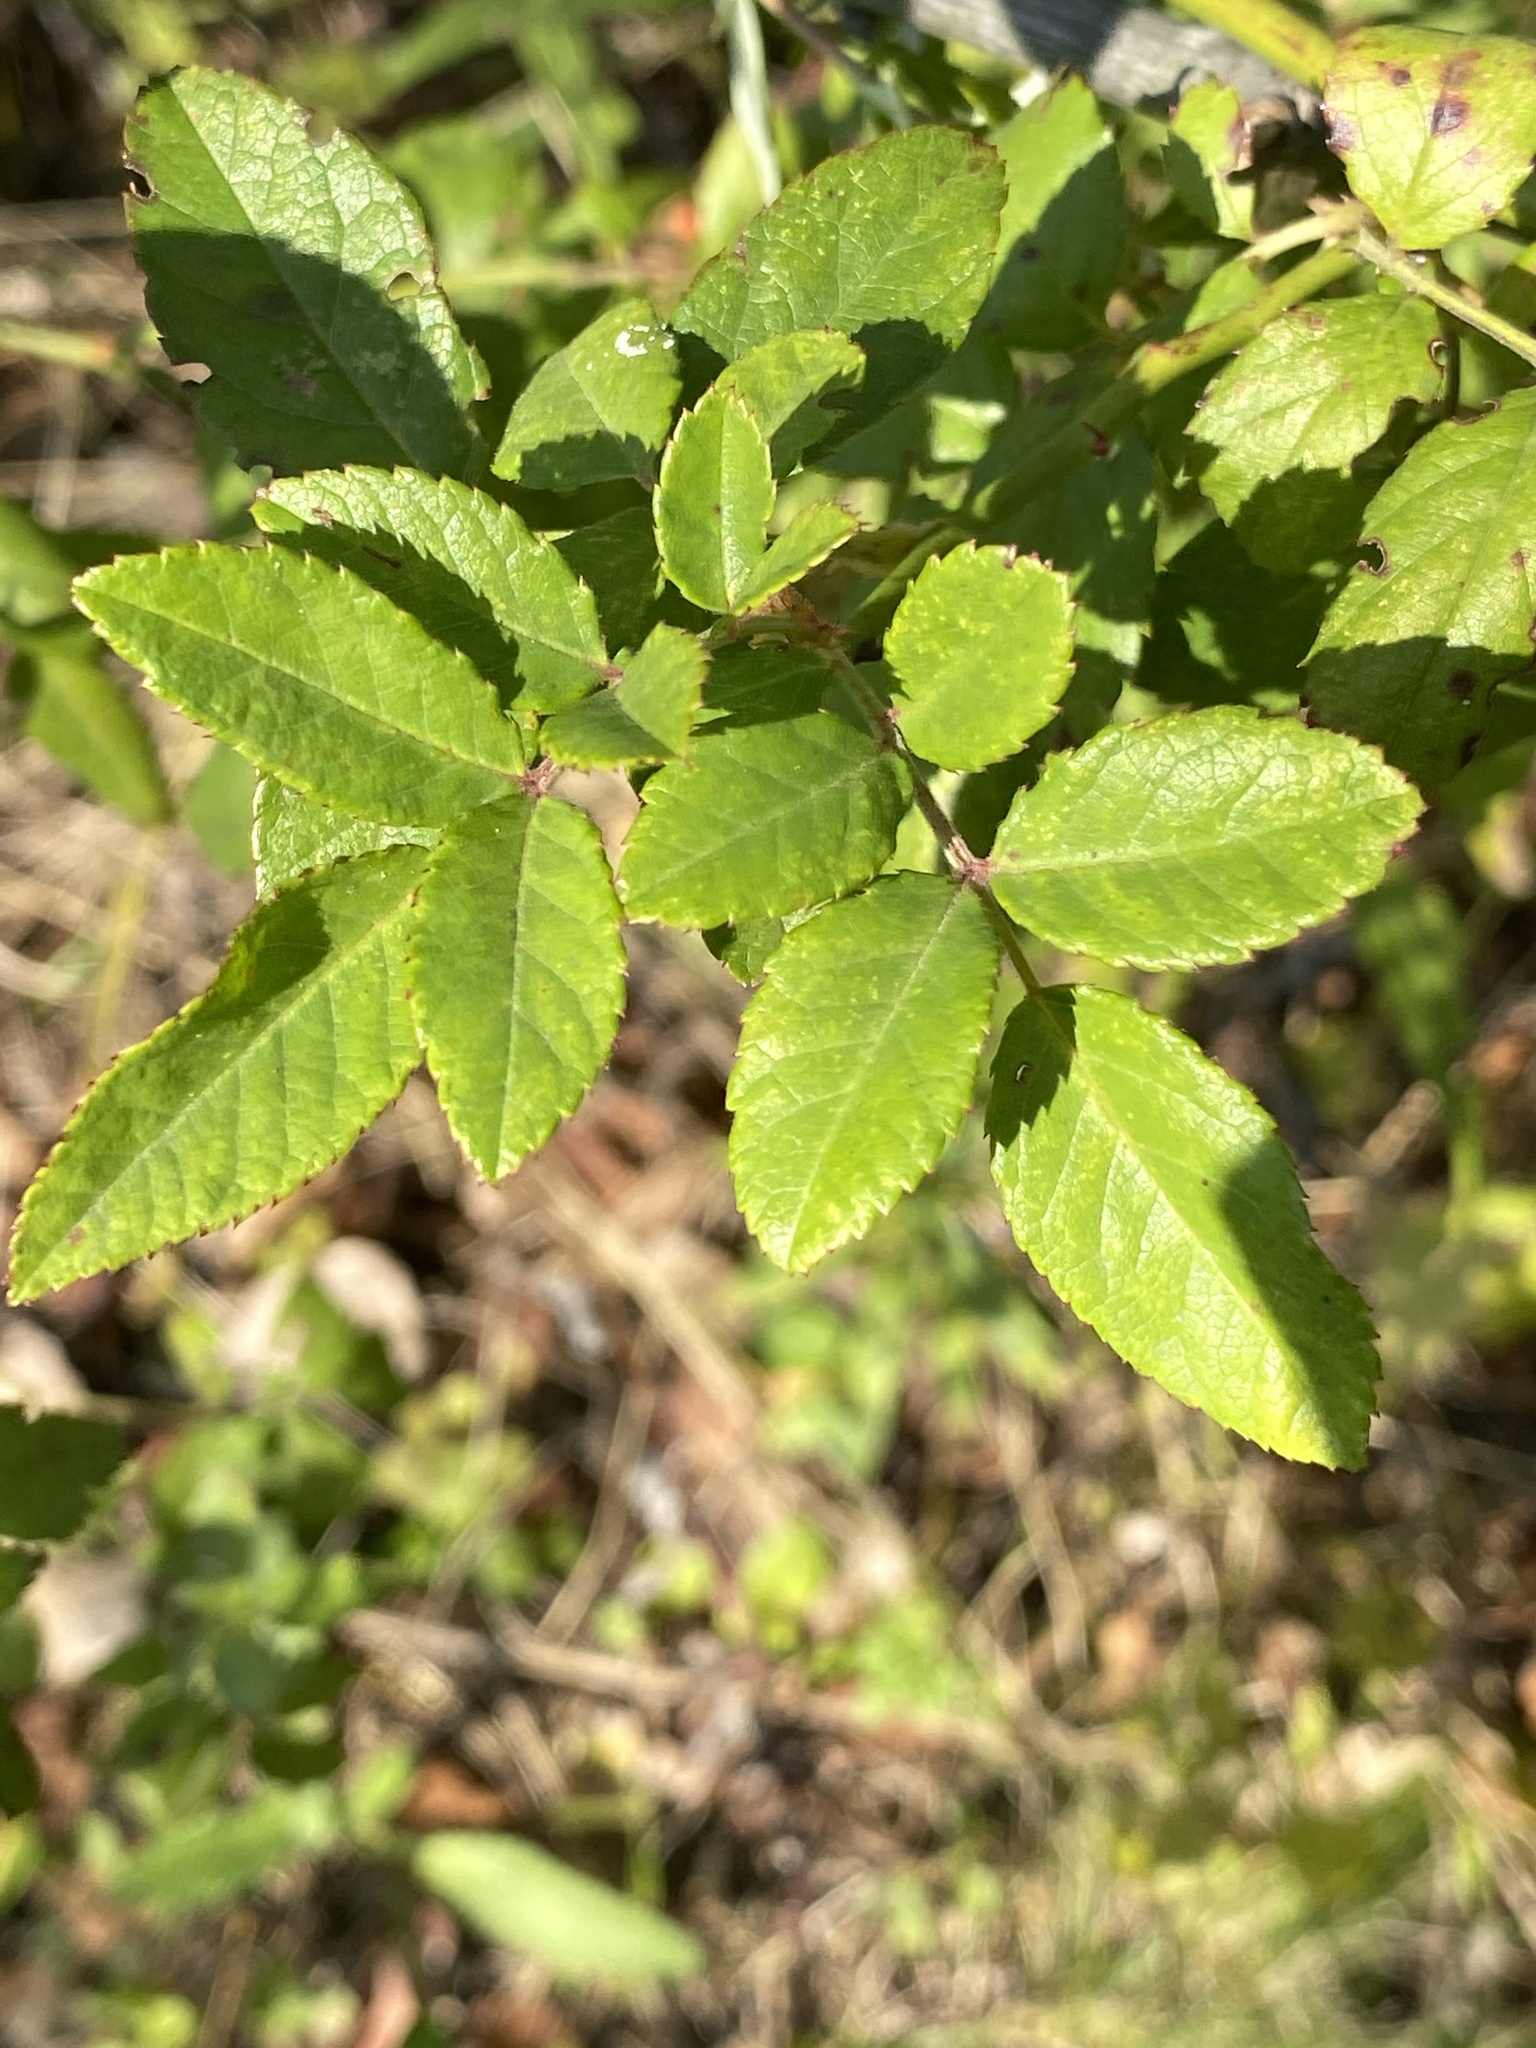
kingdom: Plantae
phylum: Tracheophyta
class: Magnoliopsida
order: Rosales
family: Rosaceae
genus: Rosa
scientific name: Rosa multiflora
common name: Multiflora rose
